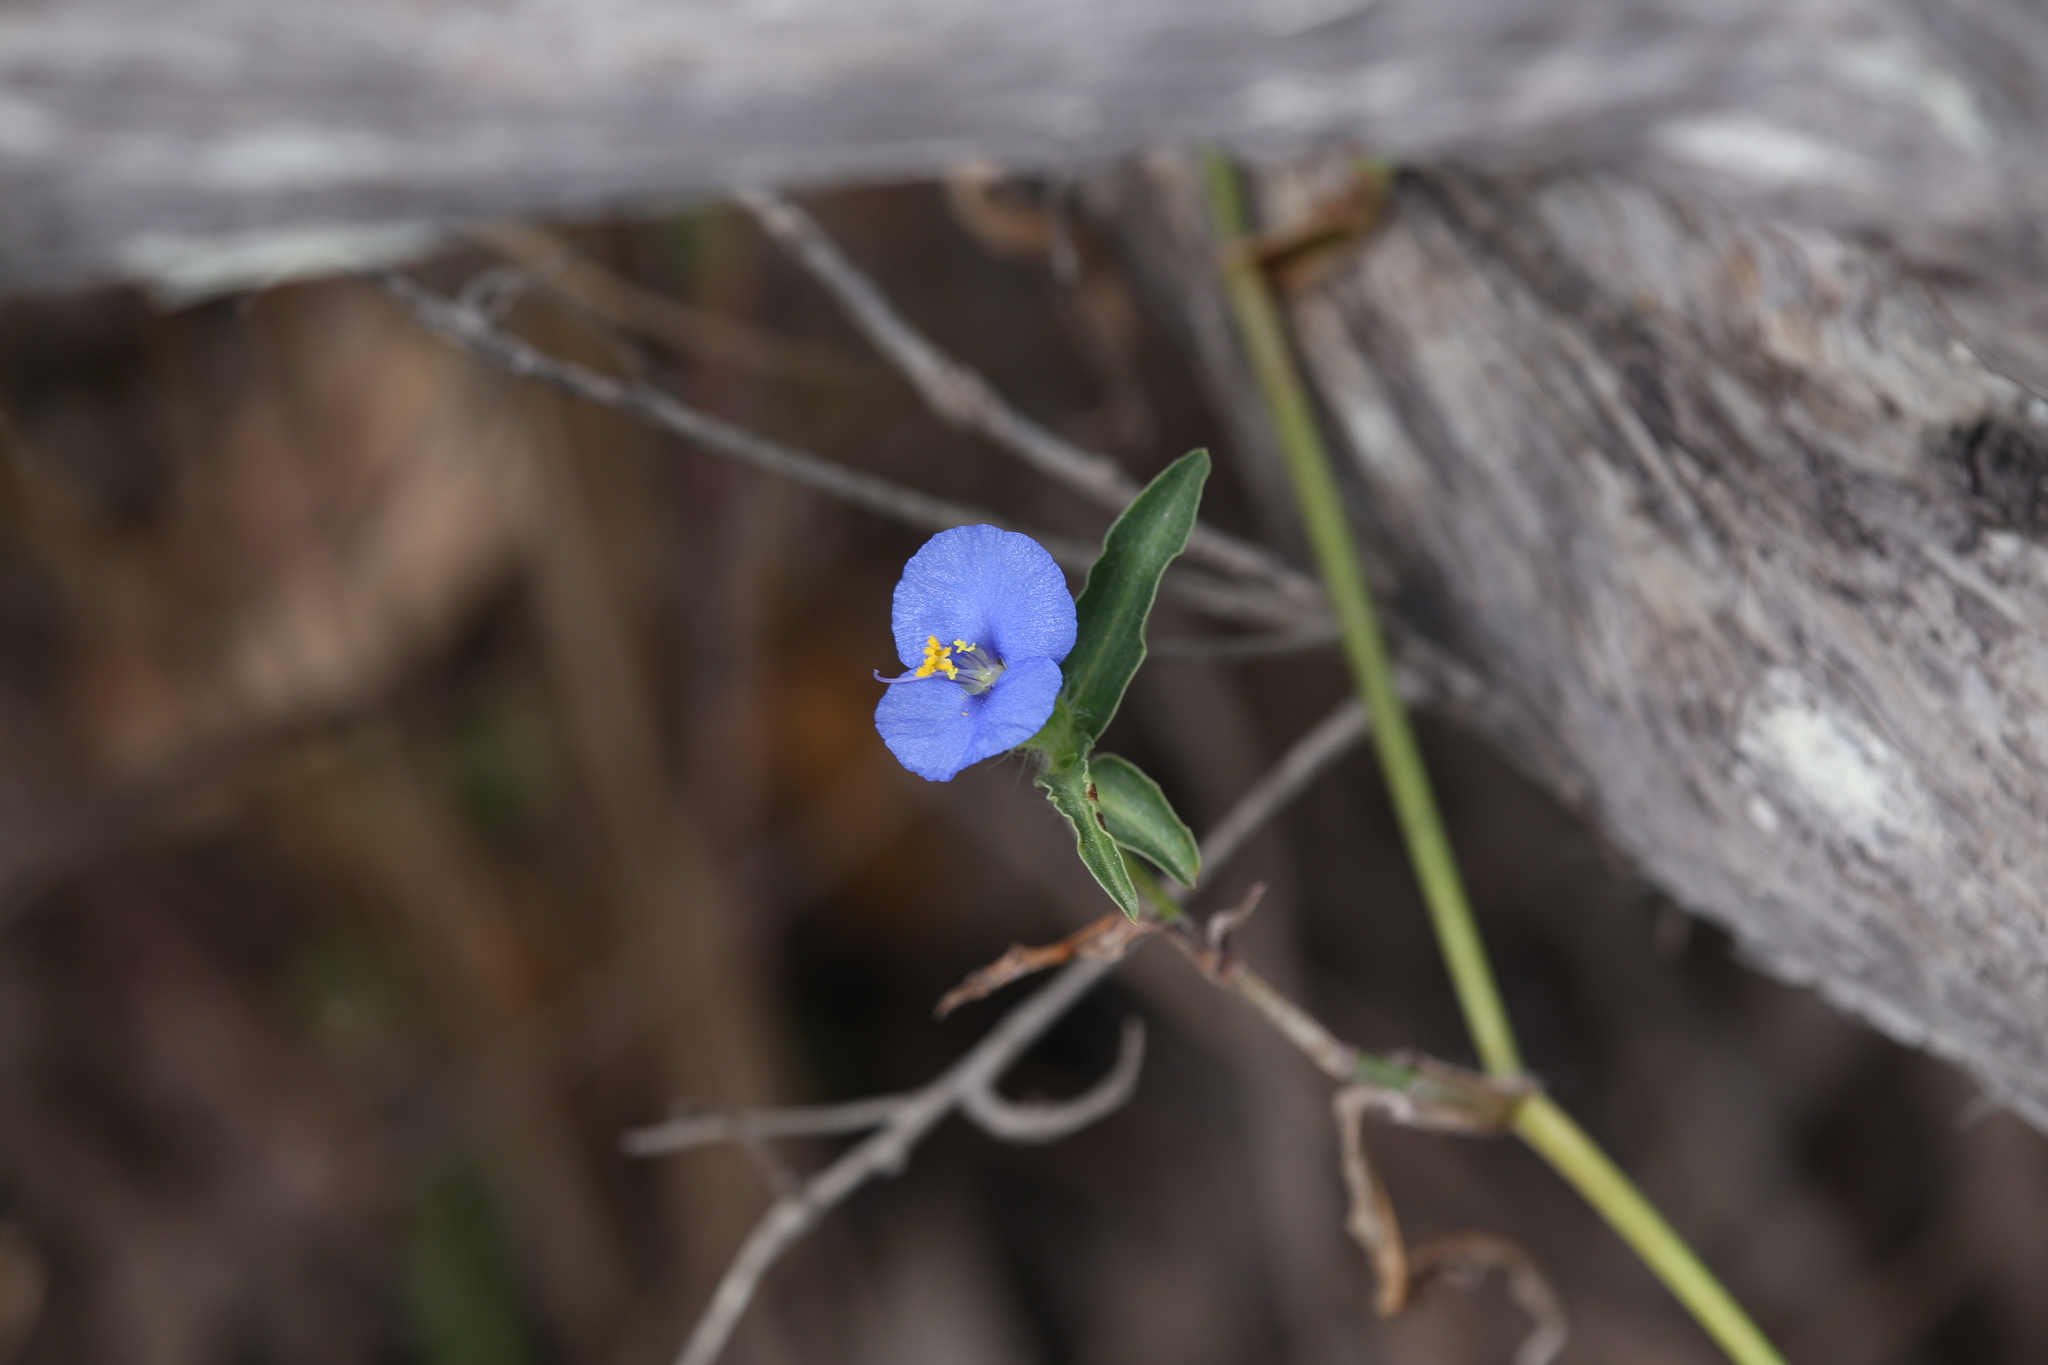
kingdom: Plantae
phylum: Tracheophyta
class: Liliopsida
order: Commelinales
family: Commelinaceae
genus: Commelina
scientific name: Commelina ensifolia
